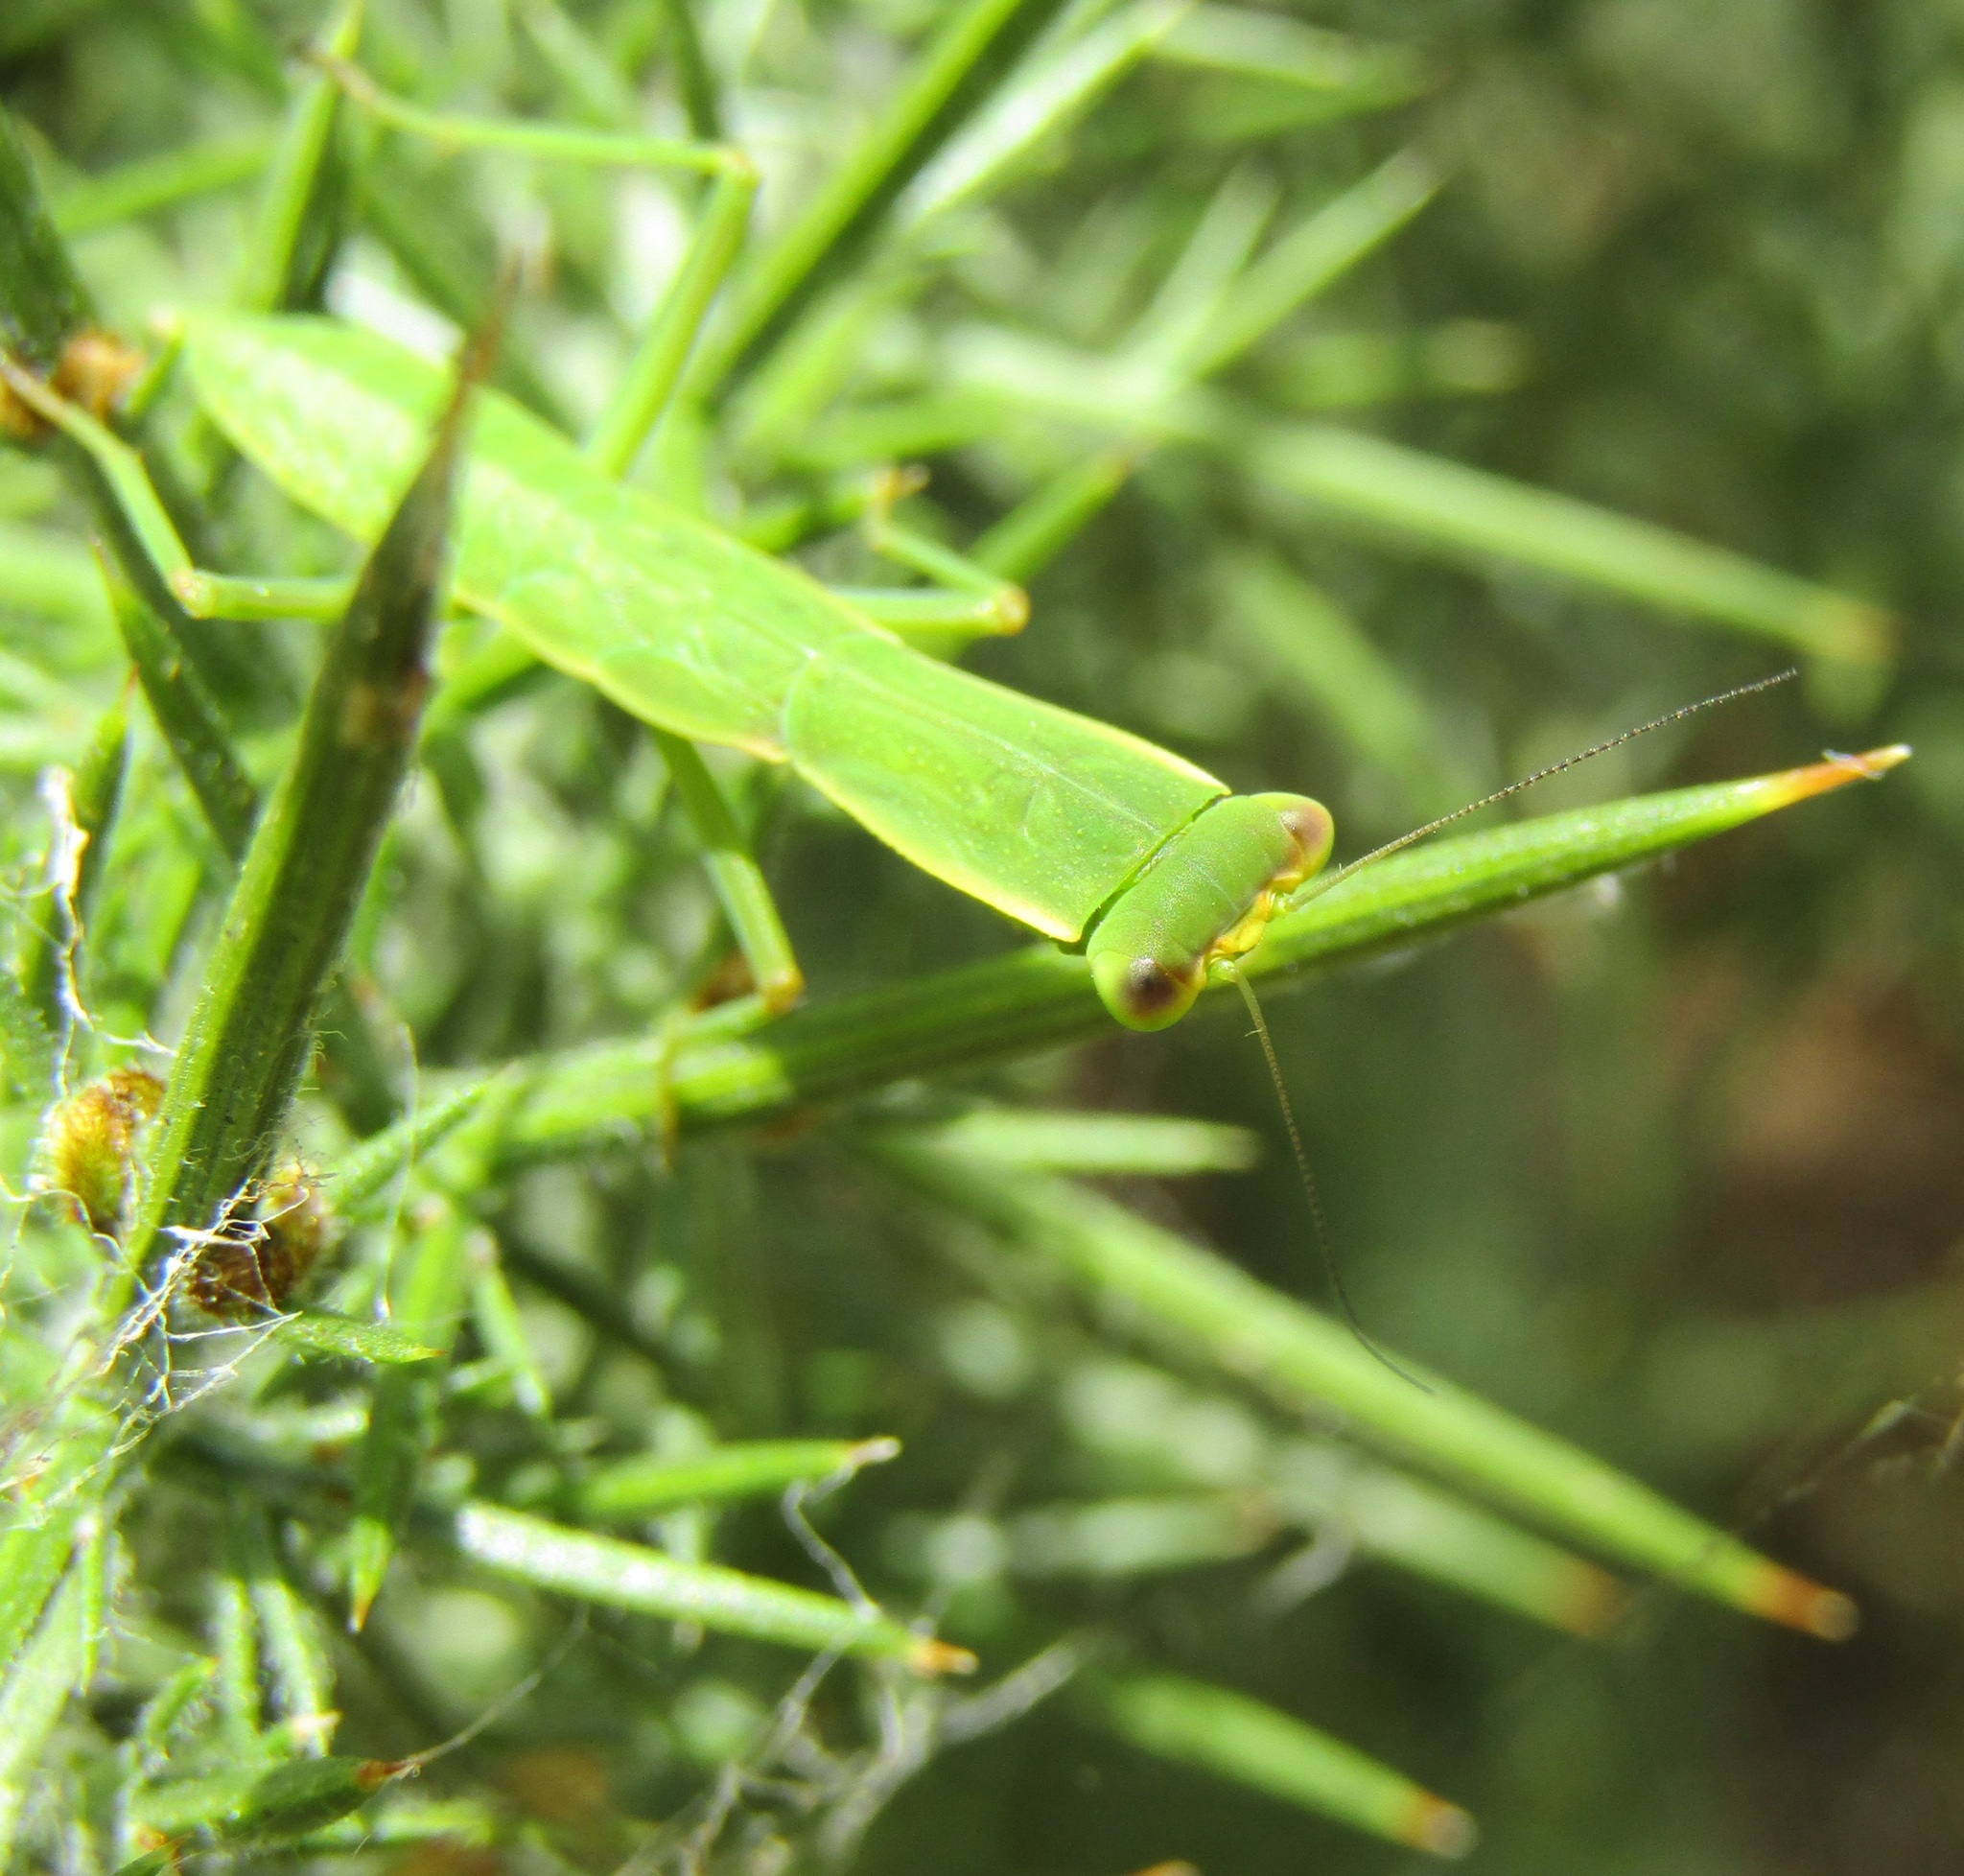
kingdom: Animalia
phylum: Arthropoda
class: Insecta
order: Mantodea
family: Mantidae
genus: Orthodera
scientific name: Orthodera novaezealandiae
